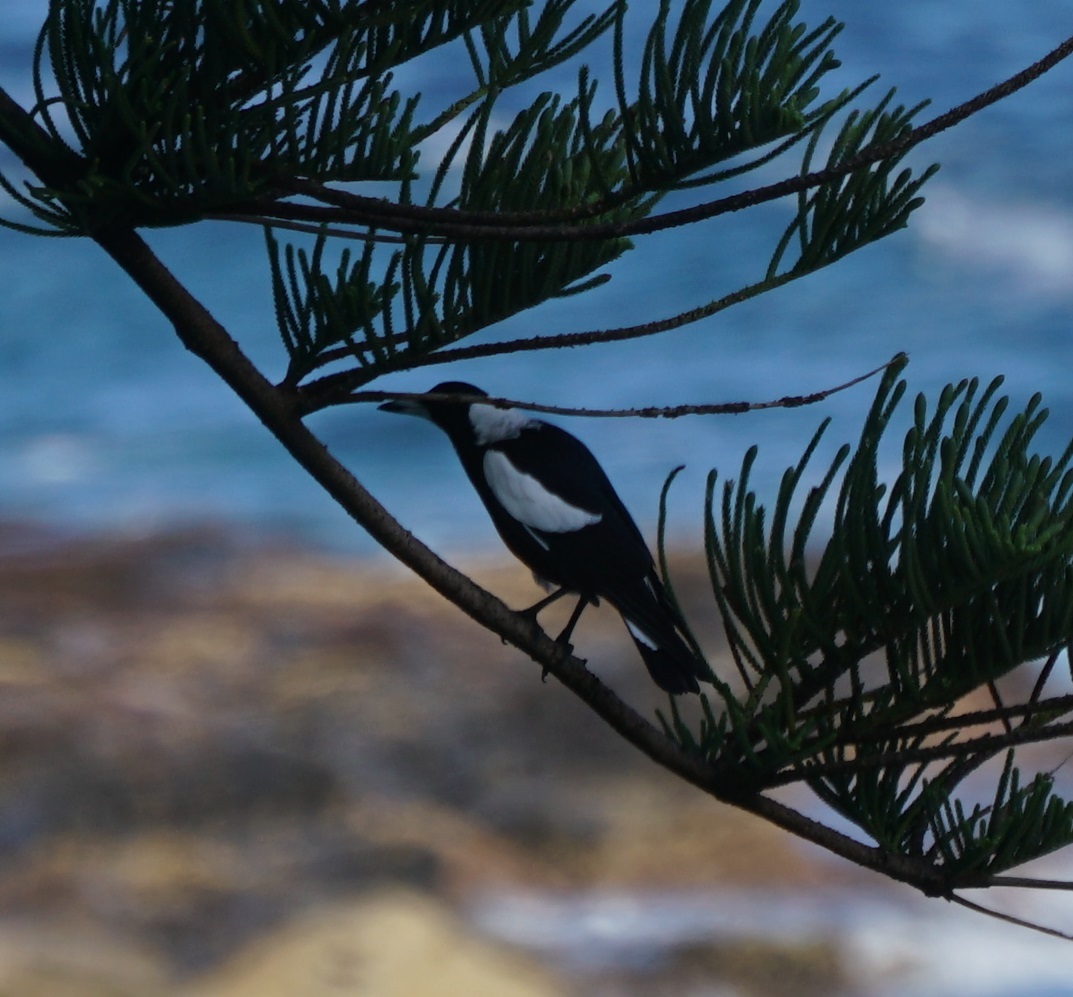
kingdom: Animalia
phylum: Chordata
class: Aves
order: Passeriformes
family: Cracticidae
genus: Gymnorhina
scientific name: Gymnorhina tibicen
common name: Australian magpie
